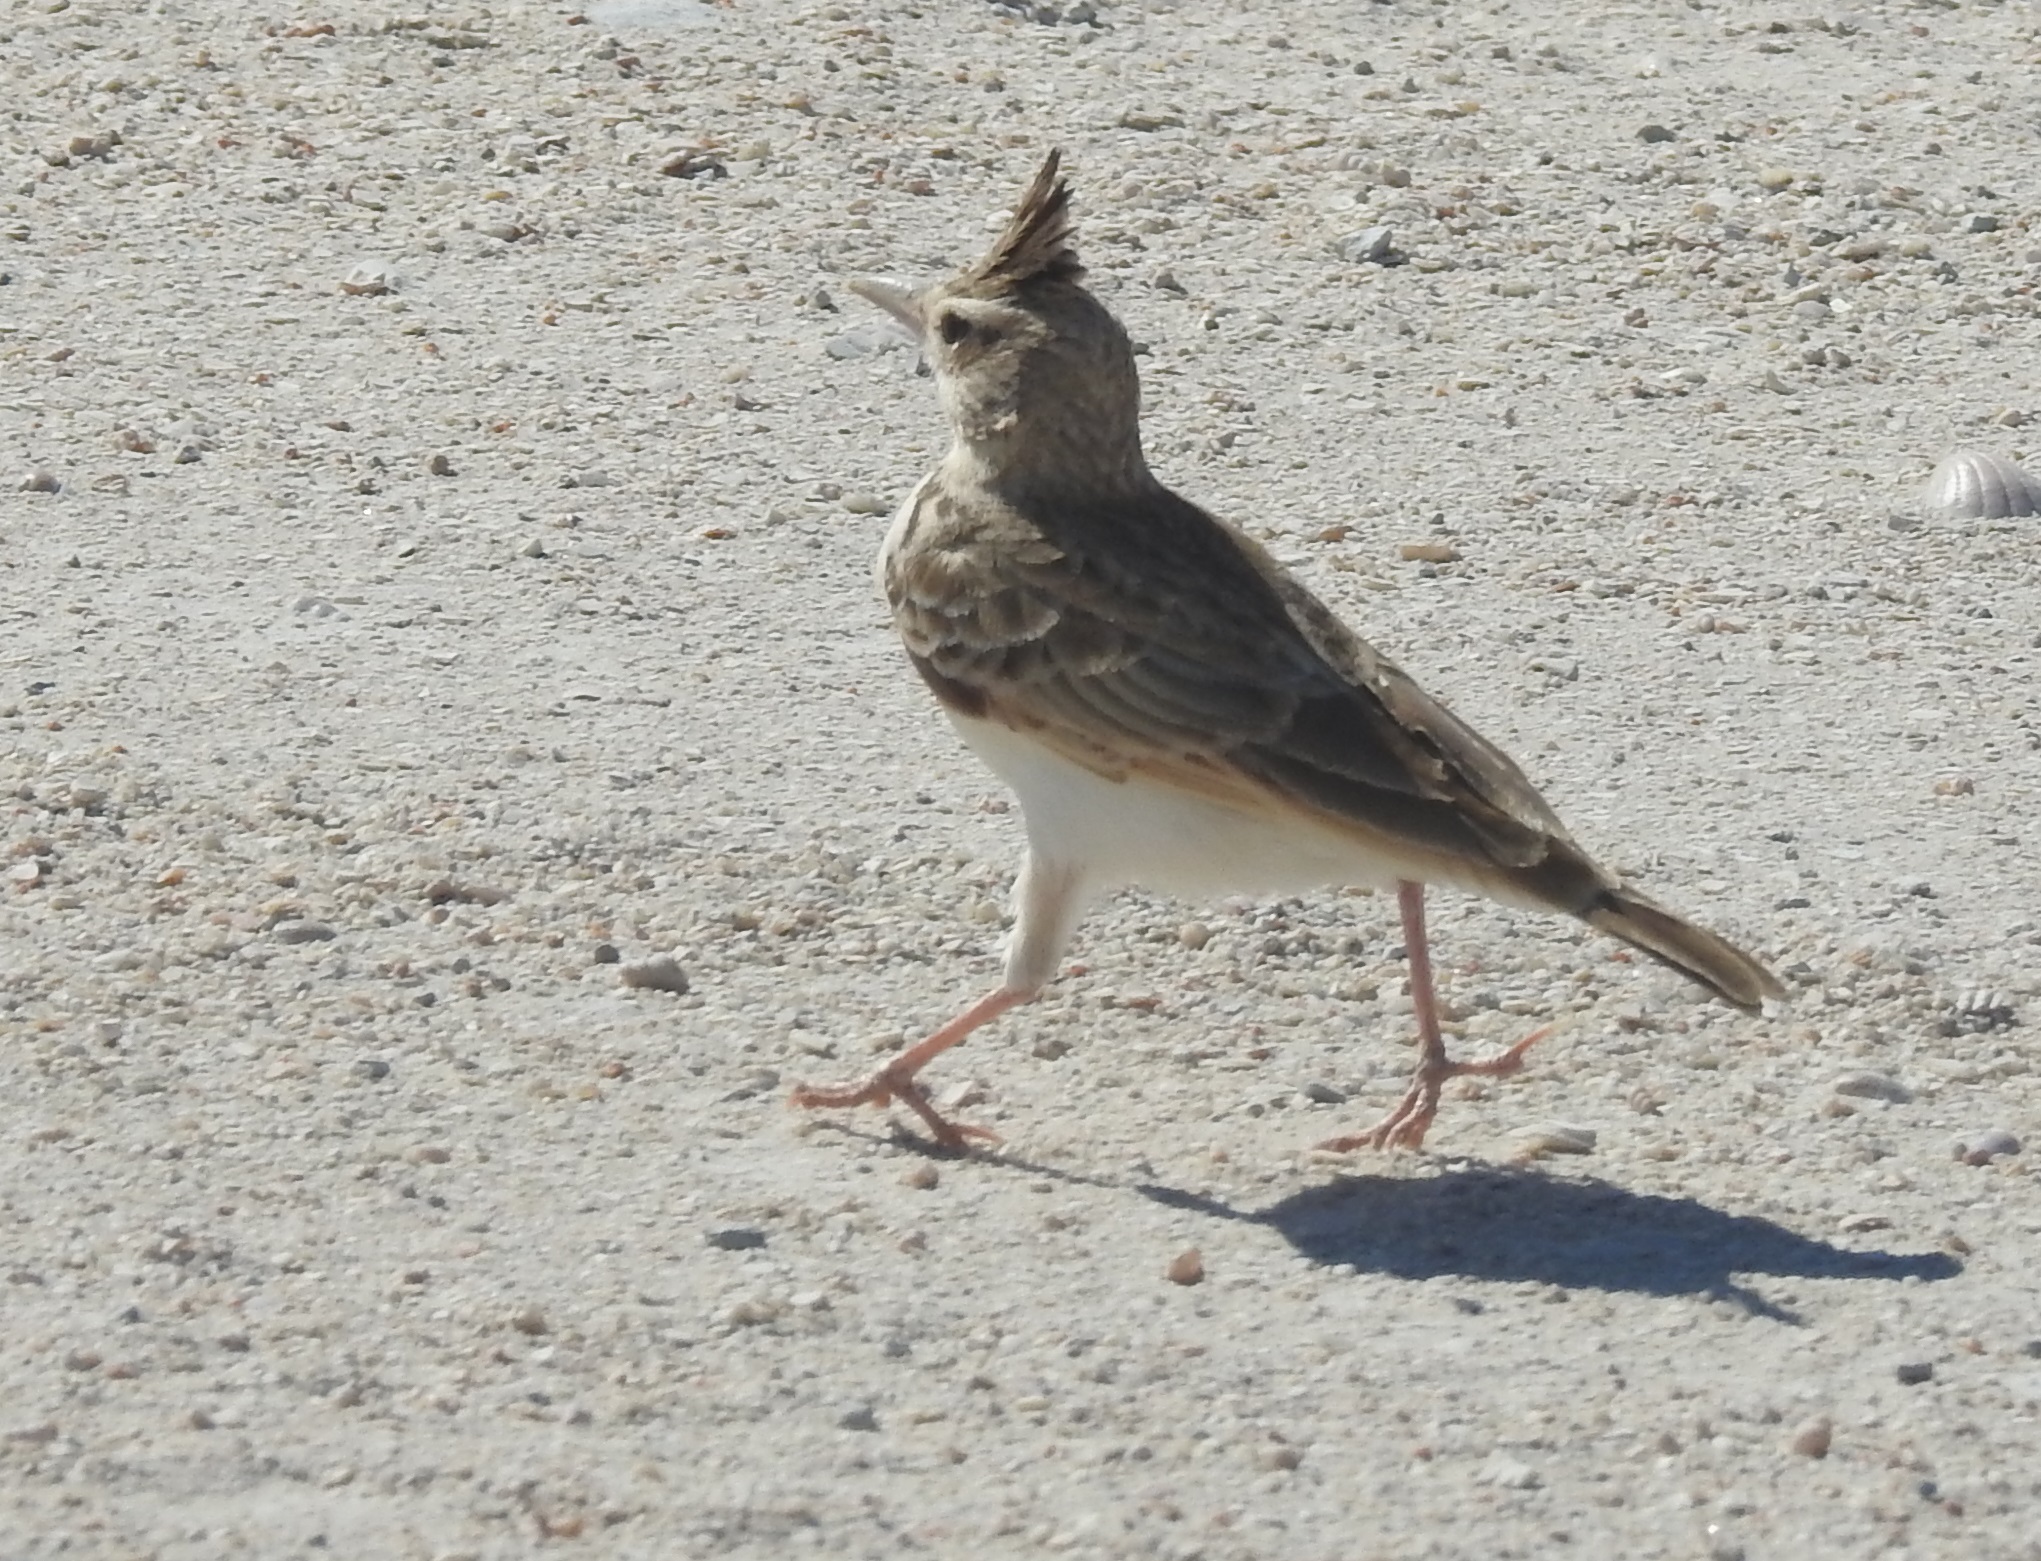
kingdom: Animalia
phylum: Chordata
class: Aves
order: Passeriformes
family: Alaudidae
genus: Galerida
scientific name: Galerida cristata
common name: Crested lark
